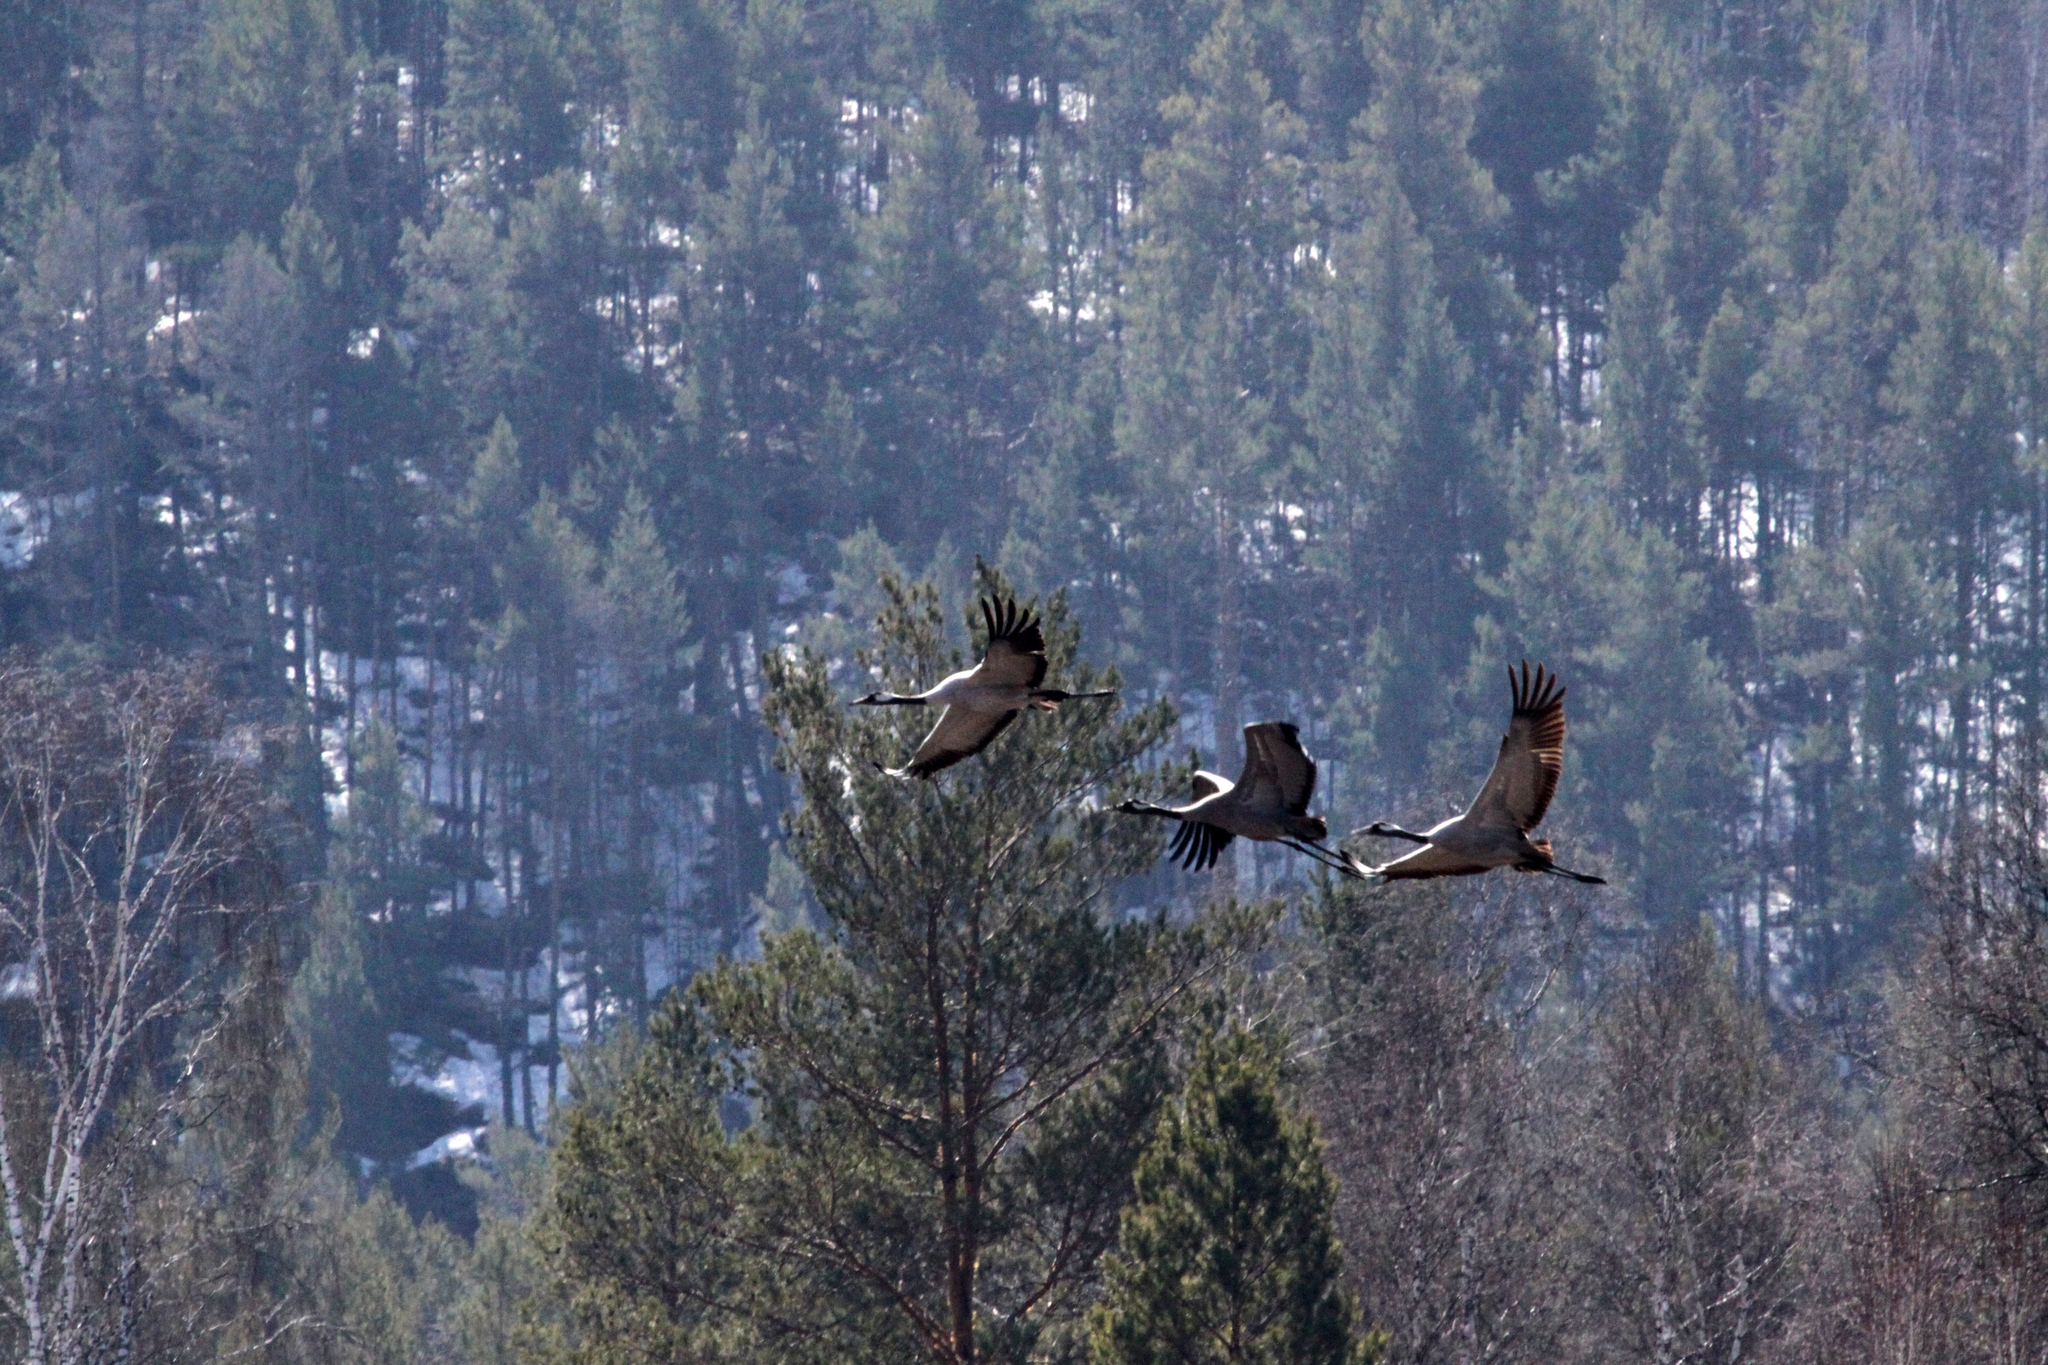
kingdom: Animalia
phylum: Chordata
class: Aves
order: Gruiformes
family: Gruidae
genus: Grus
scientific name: Grus grus
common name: Common crane
